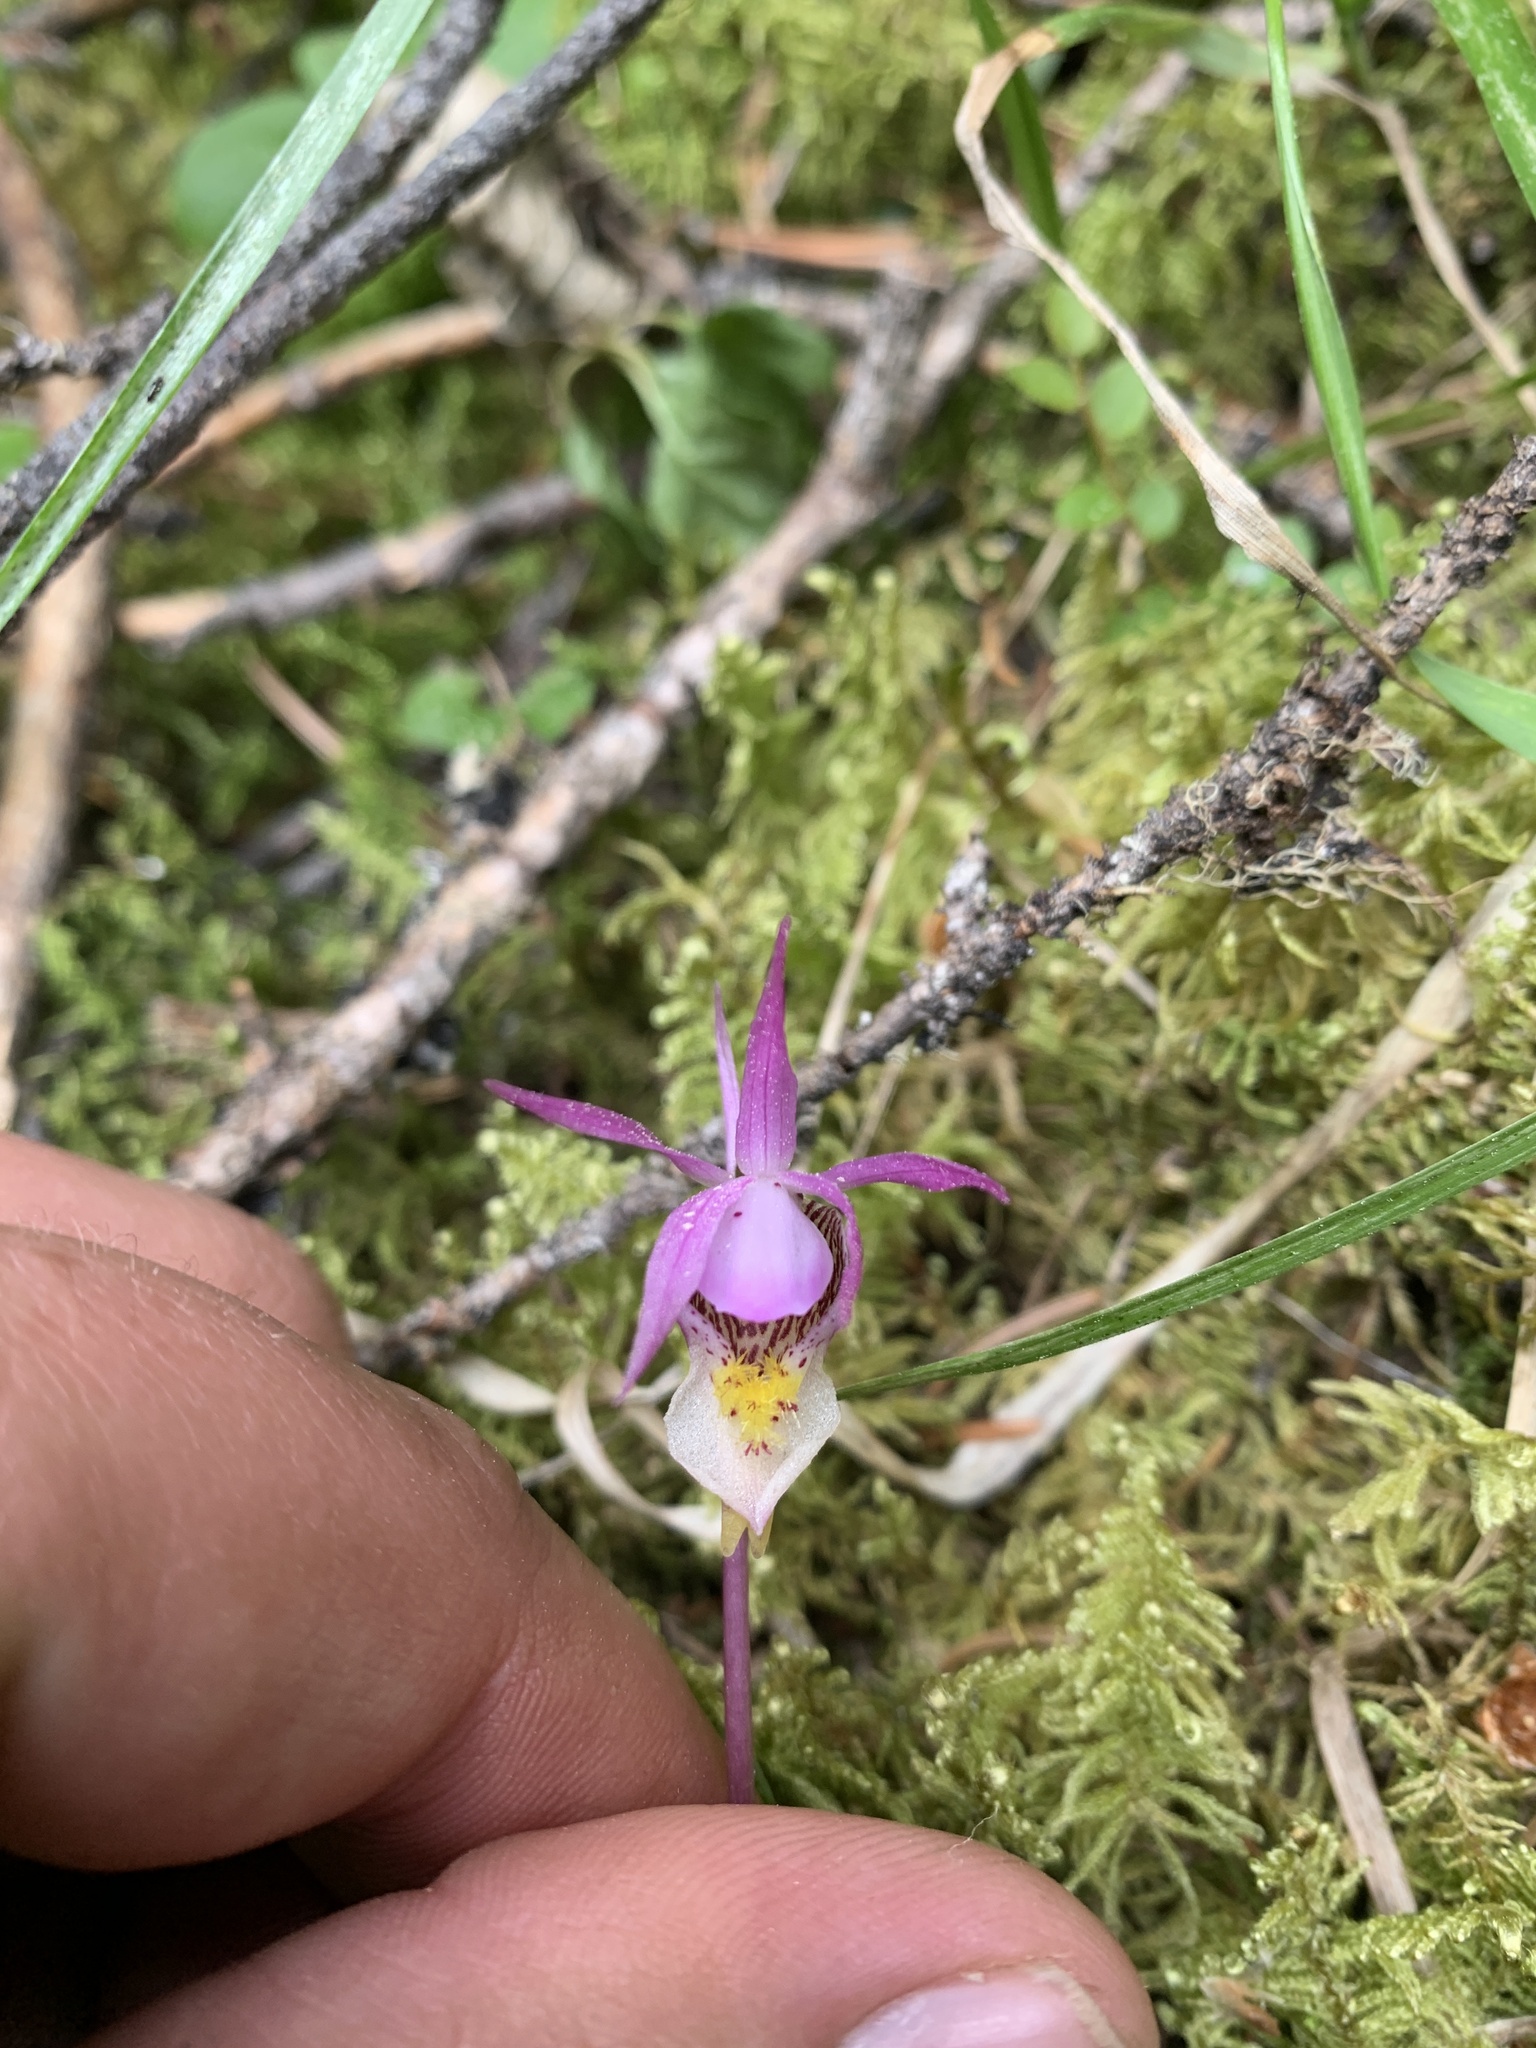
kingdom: Plantae
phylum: Tracheophyta
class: Liliopsida
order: Asparagales
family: Orchidaceae
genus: Calypso
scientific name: Calypso bulbosa
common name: Calypso
